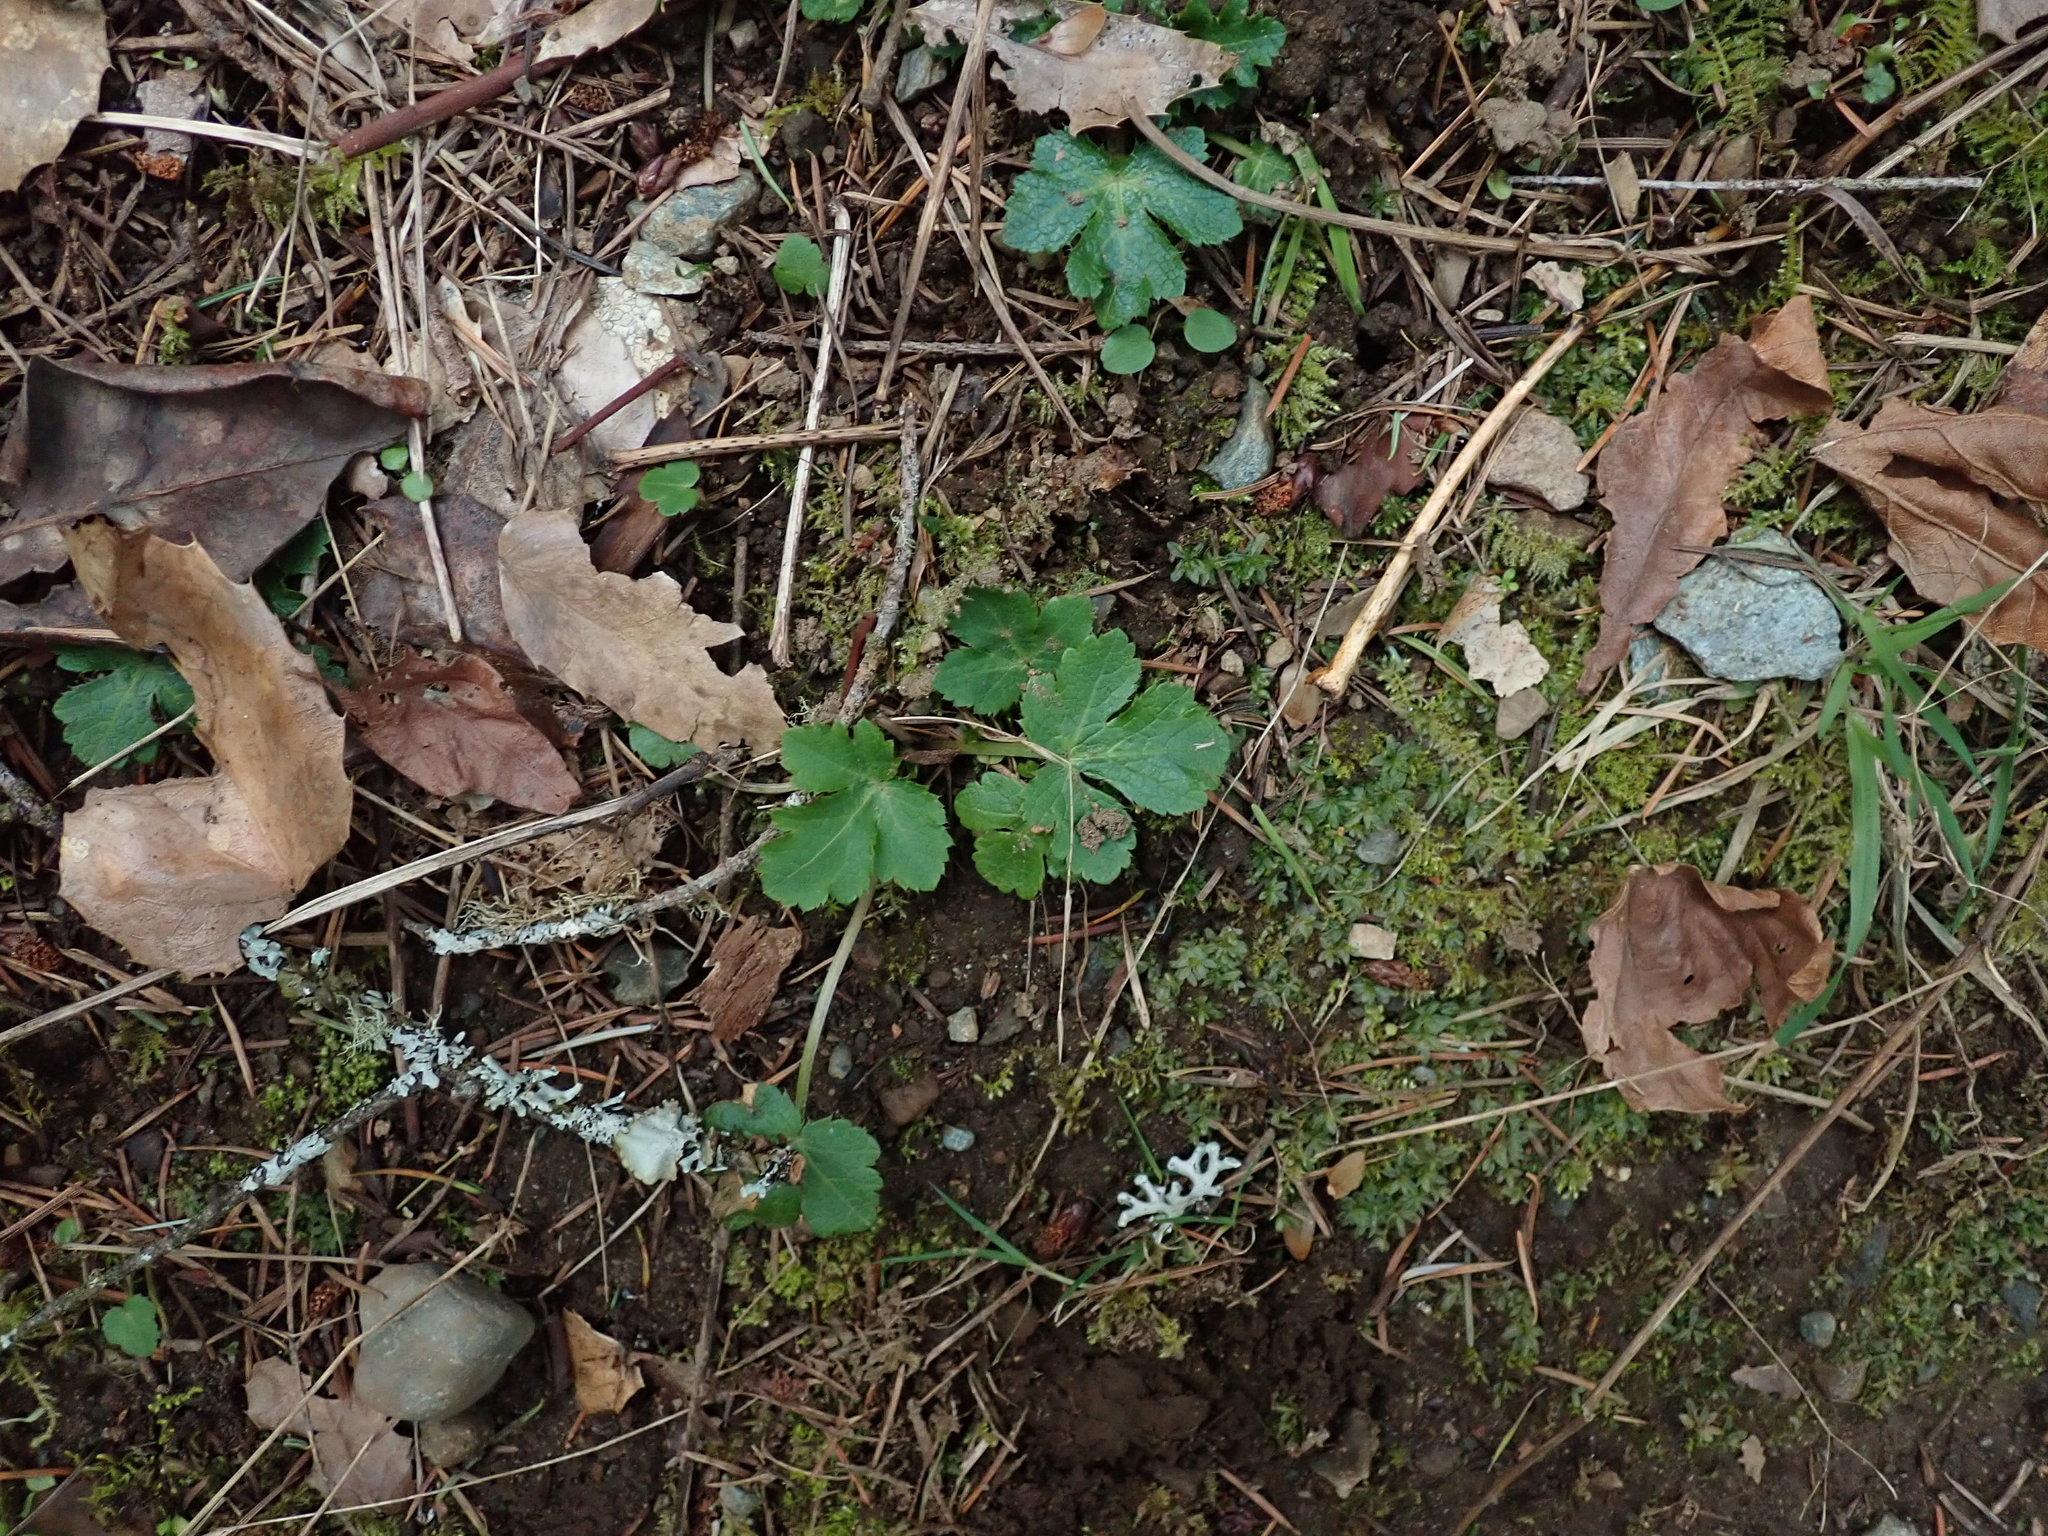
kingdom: Plantae
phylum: Tracheophyta
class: Magnoliopsida
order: Apiales
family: Apiaceae
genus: Sanicula
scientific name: Sanicula crassicaulis
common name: Western snakeroot
